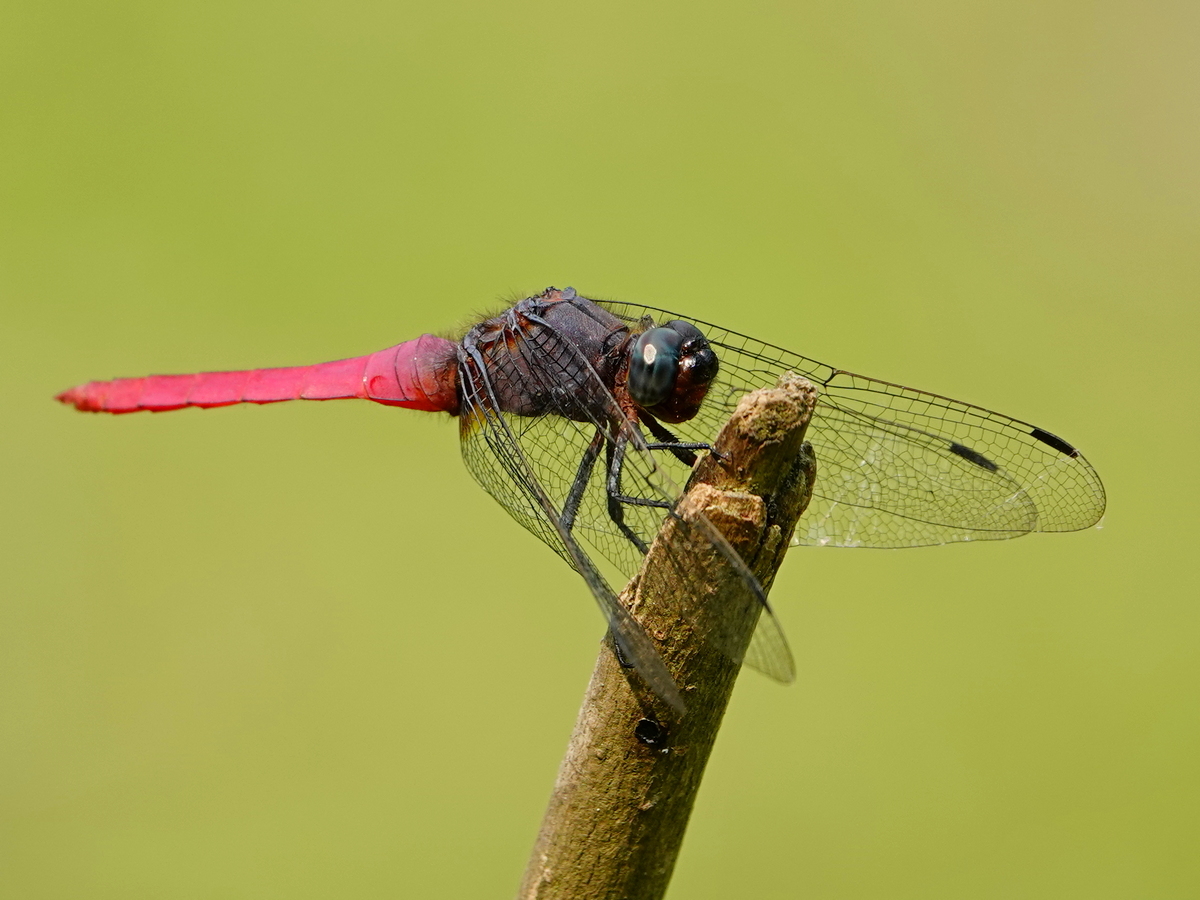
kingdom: Animalia
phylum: Arthropoda
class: Insecta
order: Odonata
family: Libellulidae
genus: Orthetrum
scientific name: Orthetrum pruinosum
